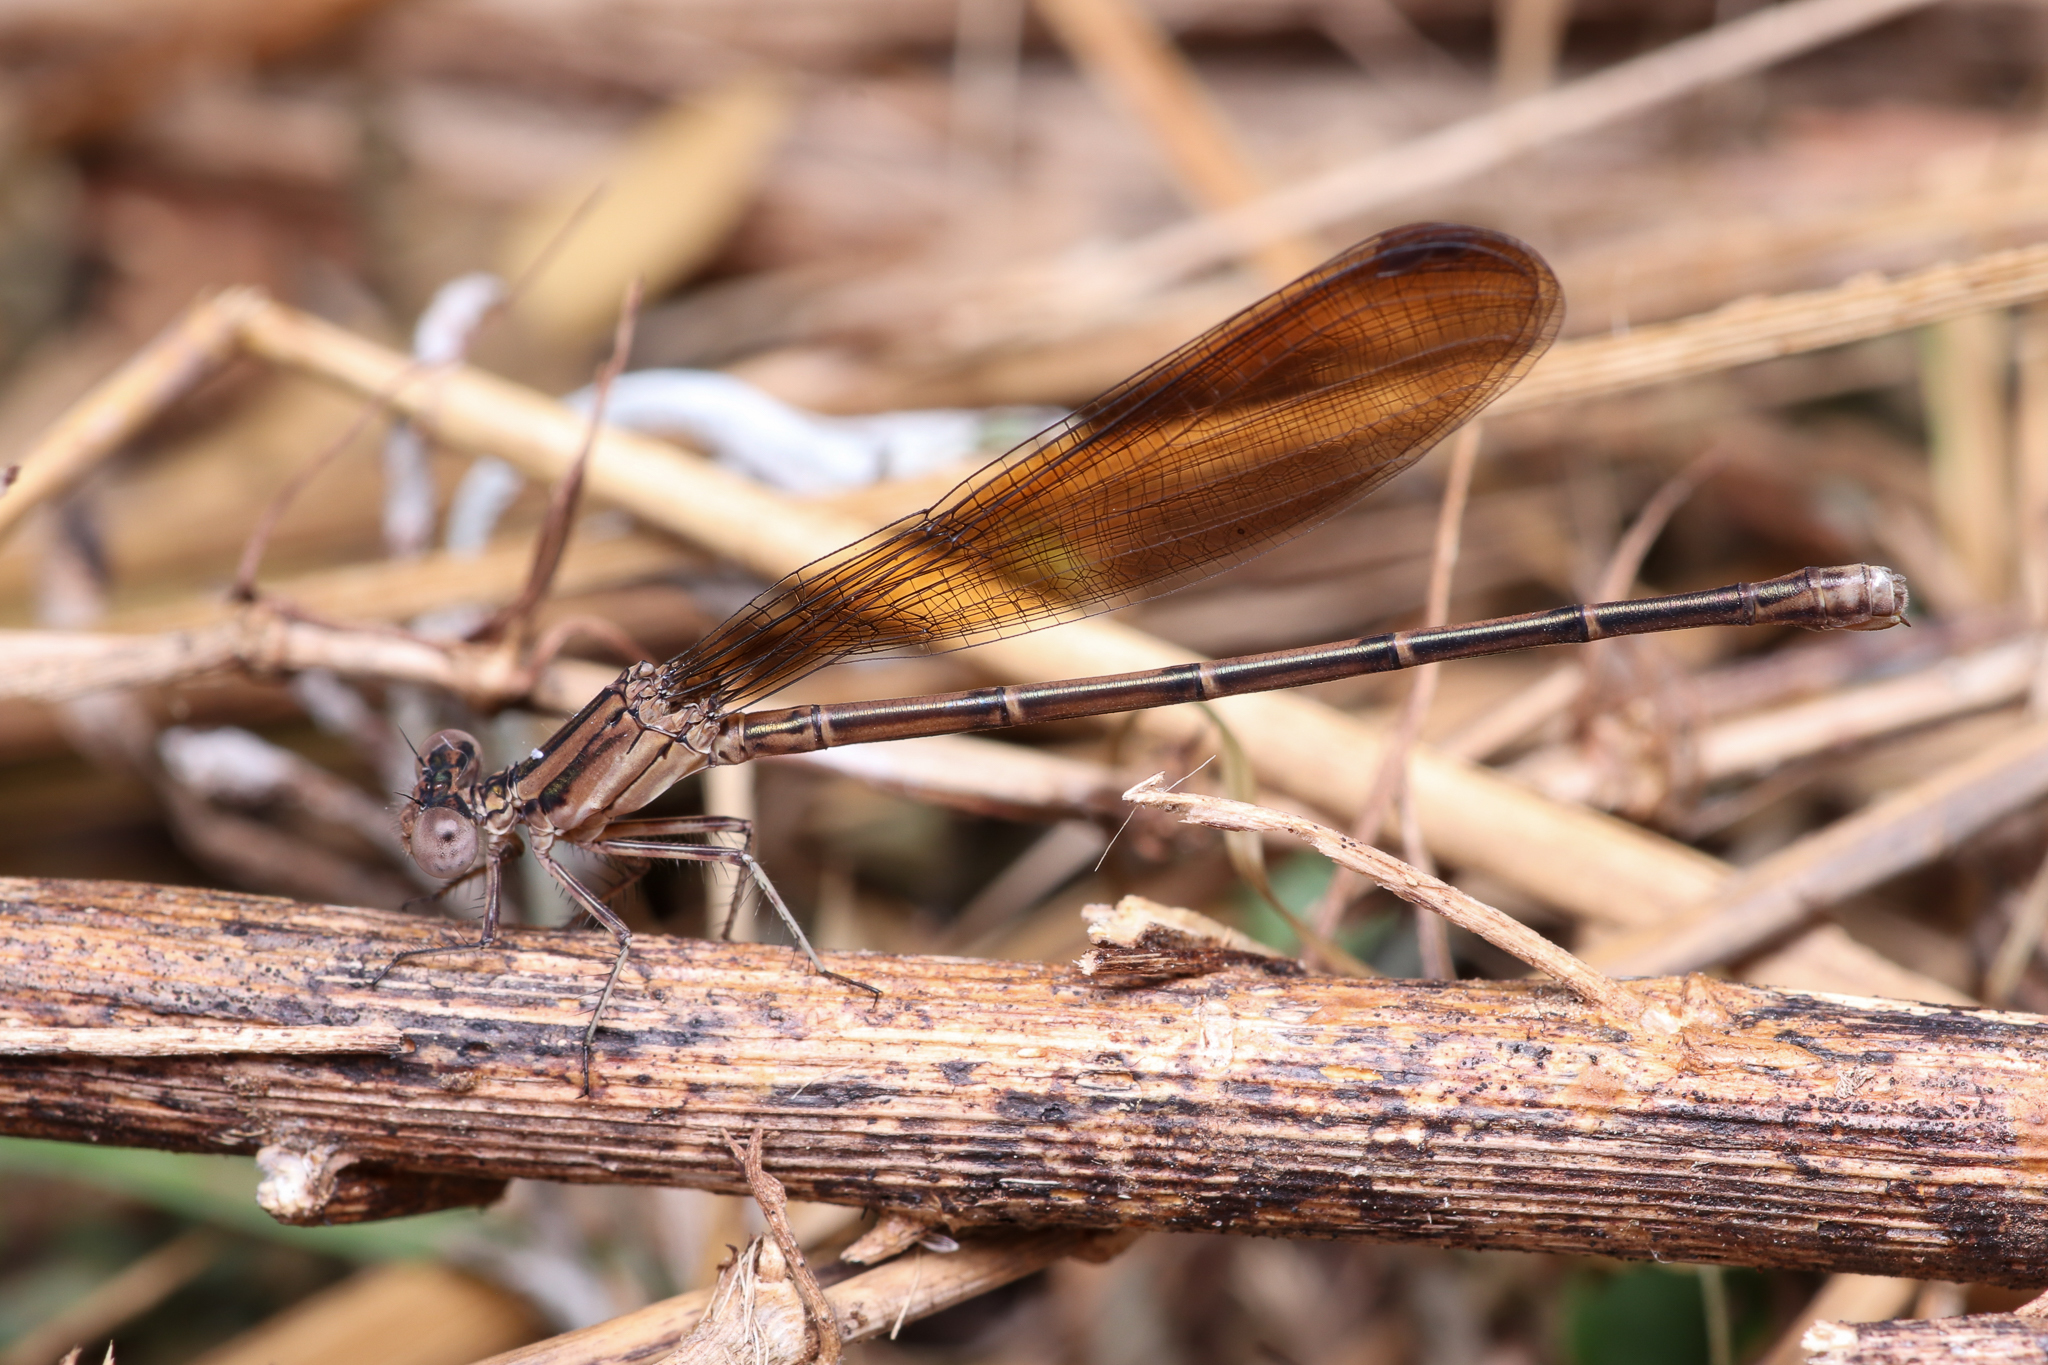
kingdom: Animalia
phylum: Arthropoda
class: Insecta
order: Odonata
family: Coenagrionidae
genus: Argia
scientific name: Argia fumipennis
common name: Variable dancer
